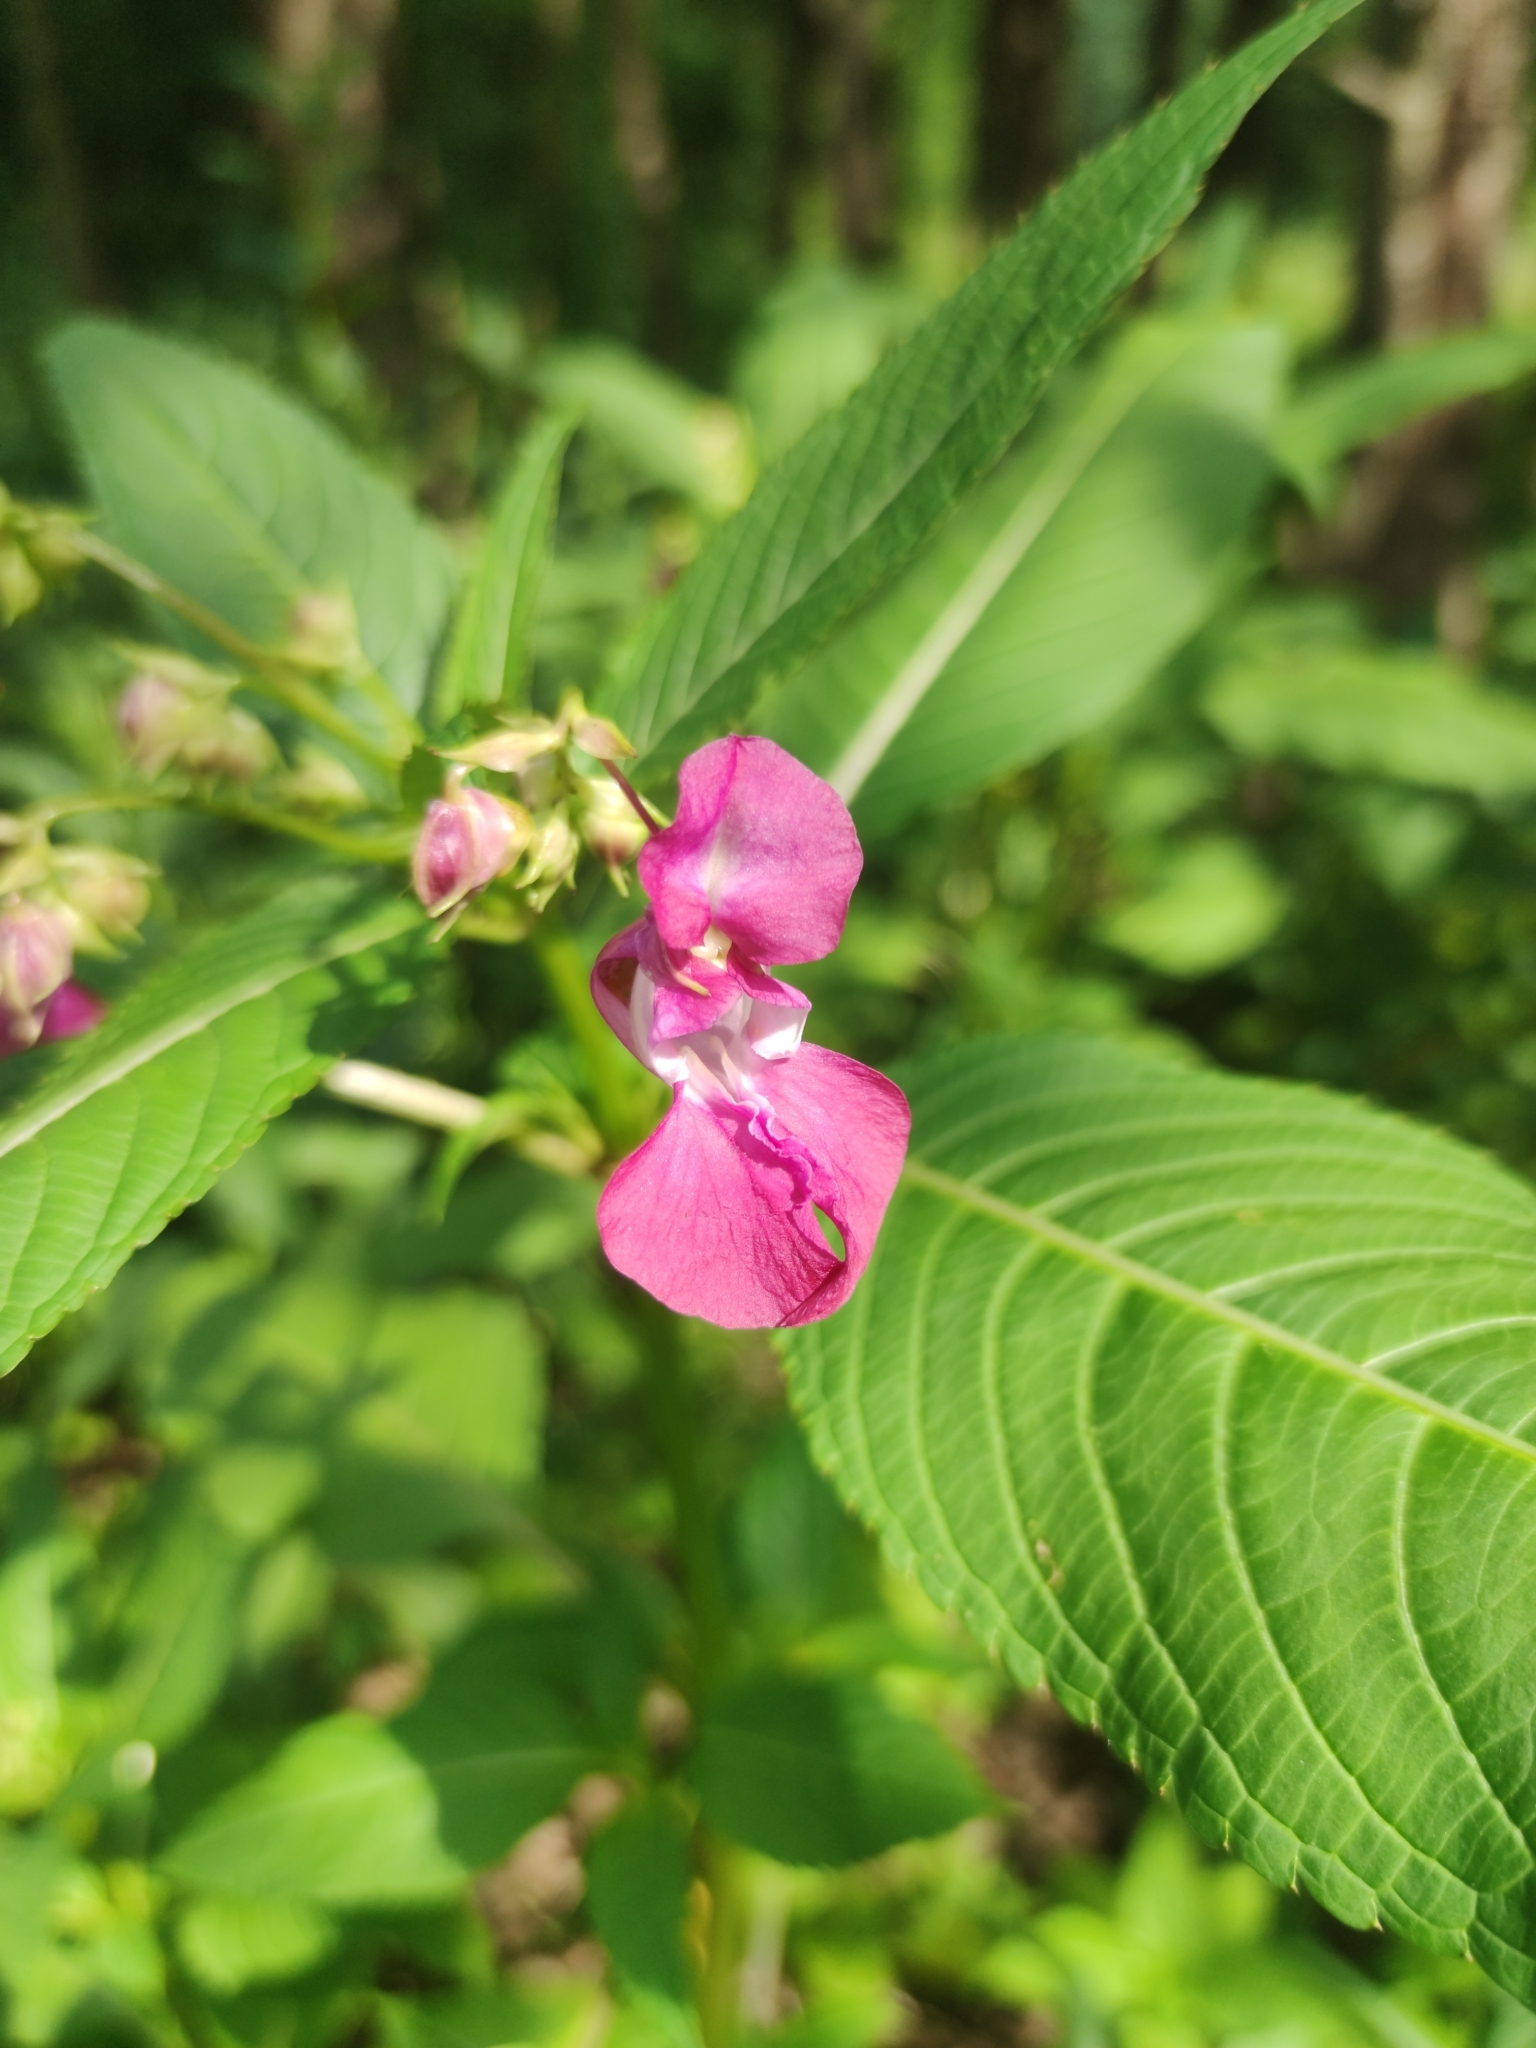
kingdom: Plantae
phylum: Tracheophyta
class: Magnoliopsida
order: Ericales
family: Balsaminaceae
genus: Impatiens
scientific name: Impatiens glandulifera
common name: Himalayan balsam
